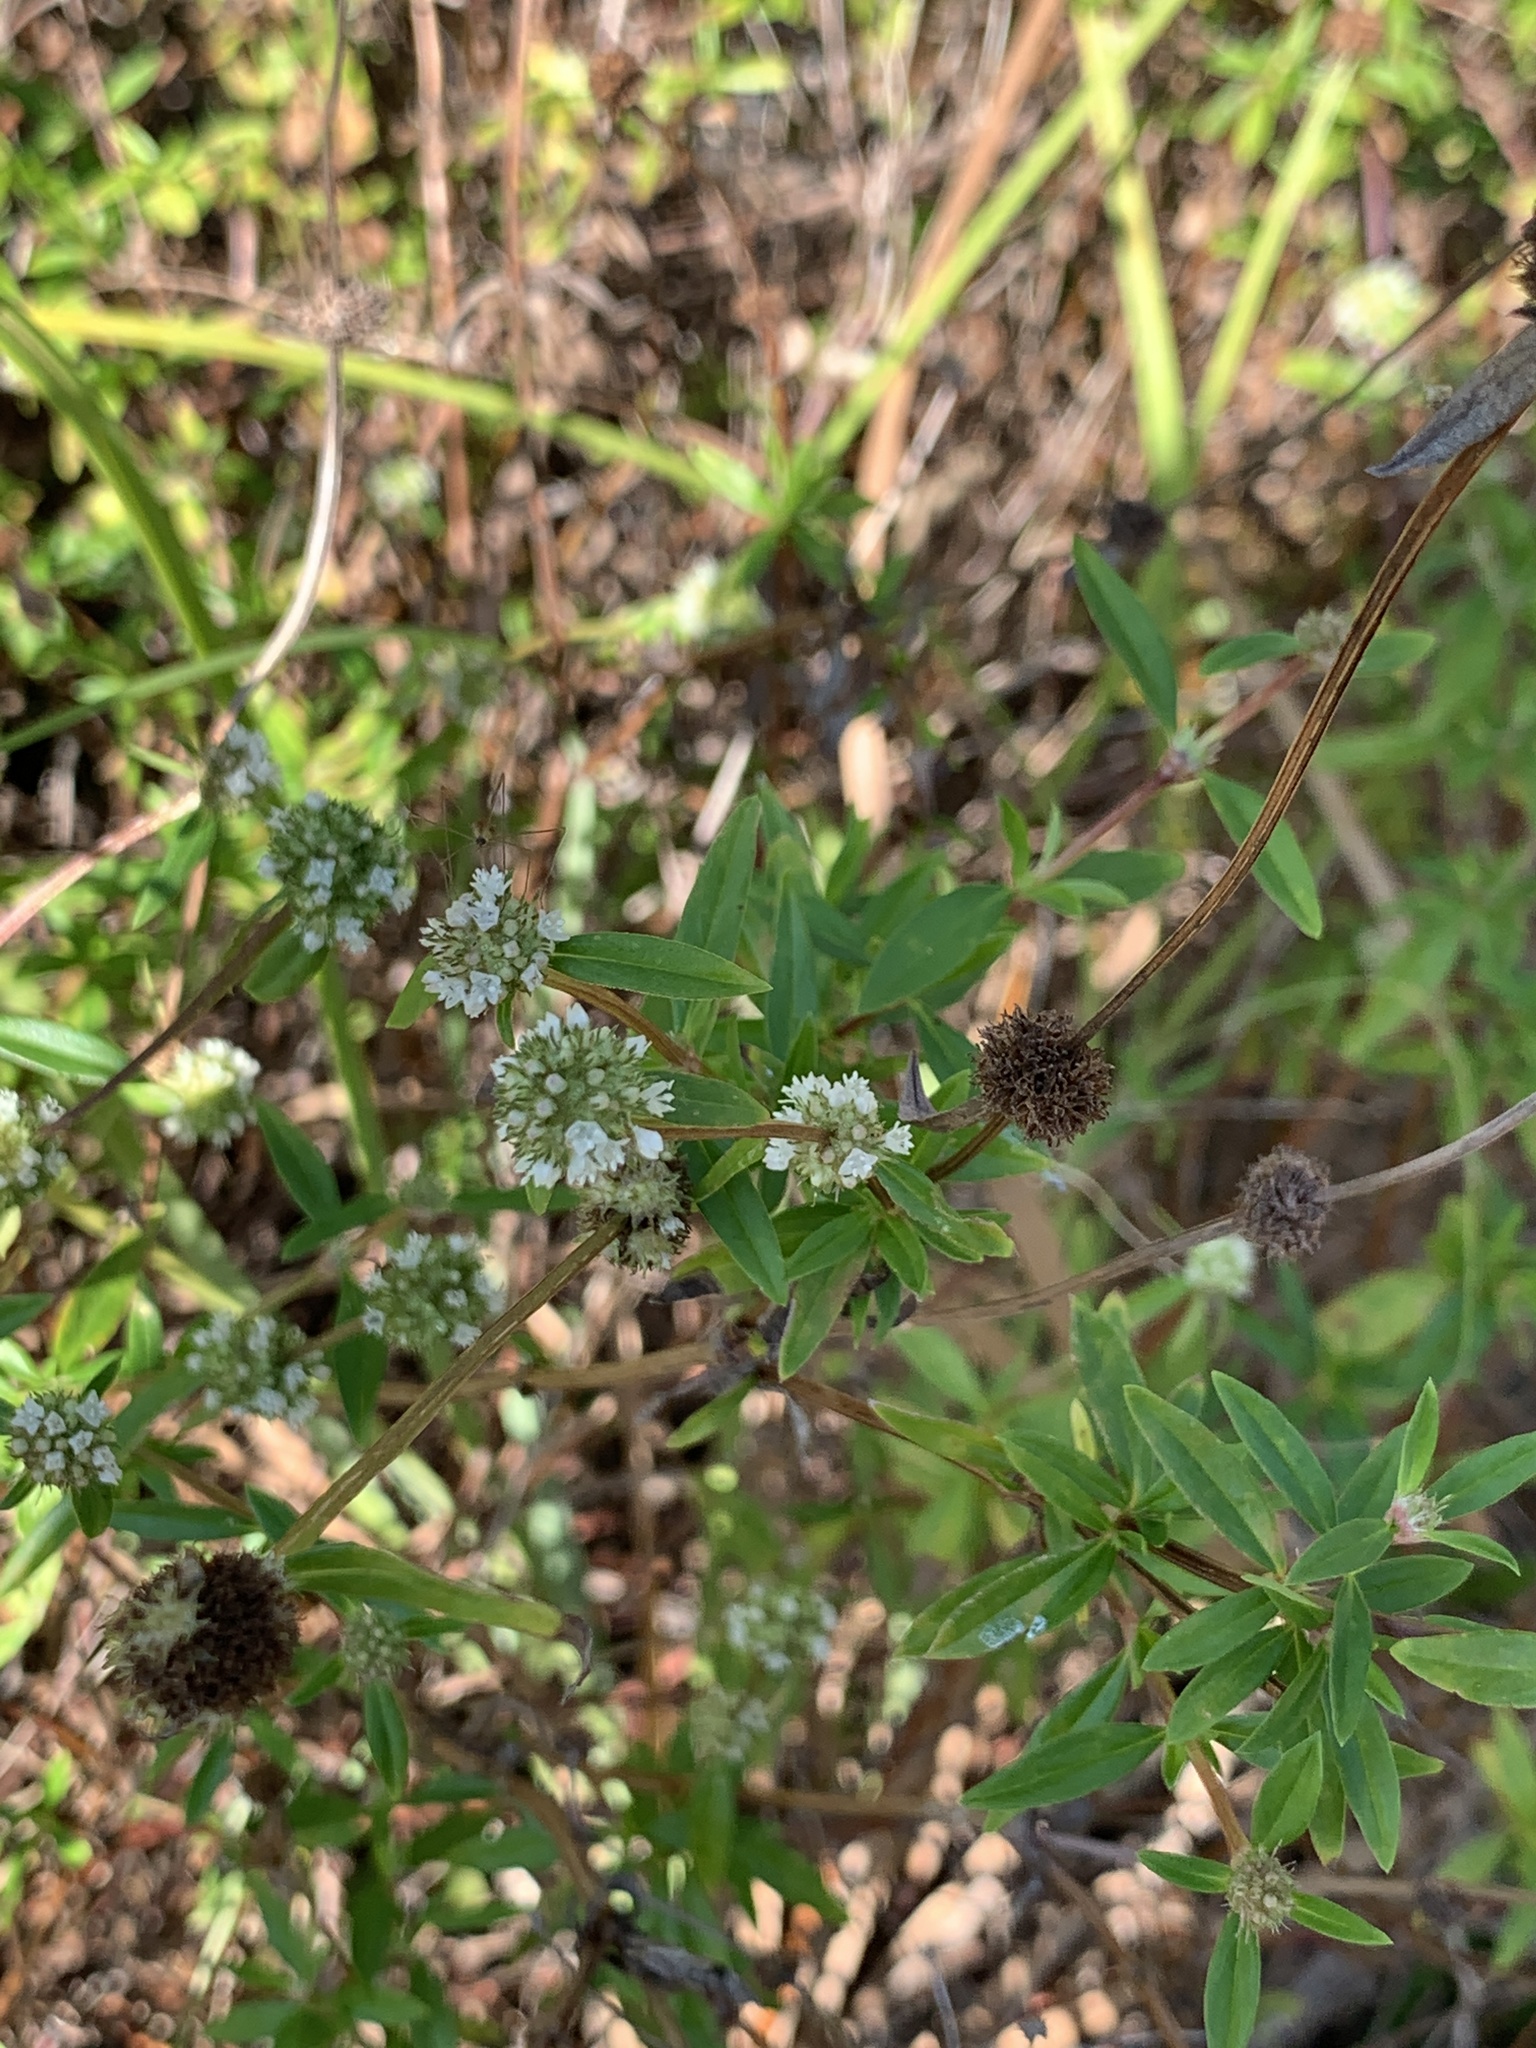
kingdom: Plantae
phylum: Tracheophyta
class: Magnoliopsida
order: Gentianales
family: Rubiaceae
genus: Spermacoce
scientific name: Spermacoce verticillata
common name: Shrubby false buttonweed
